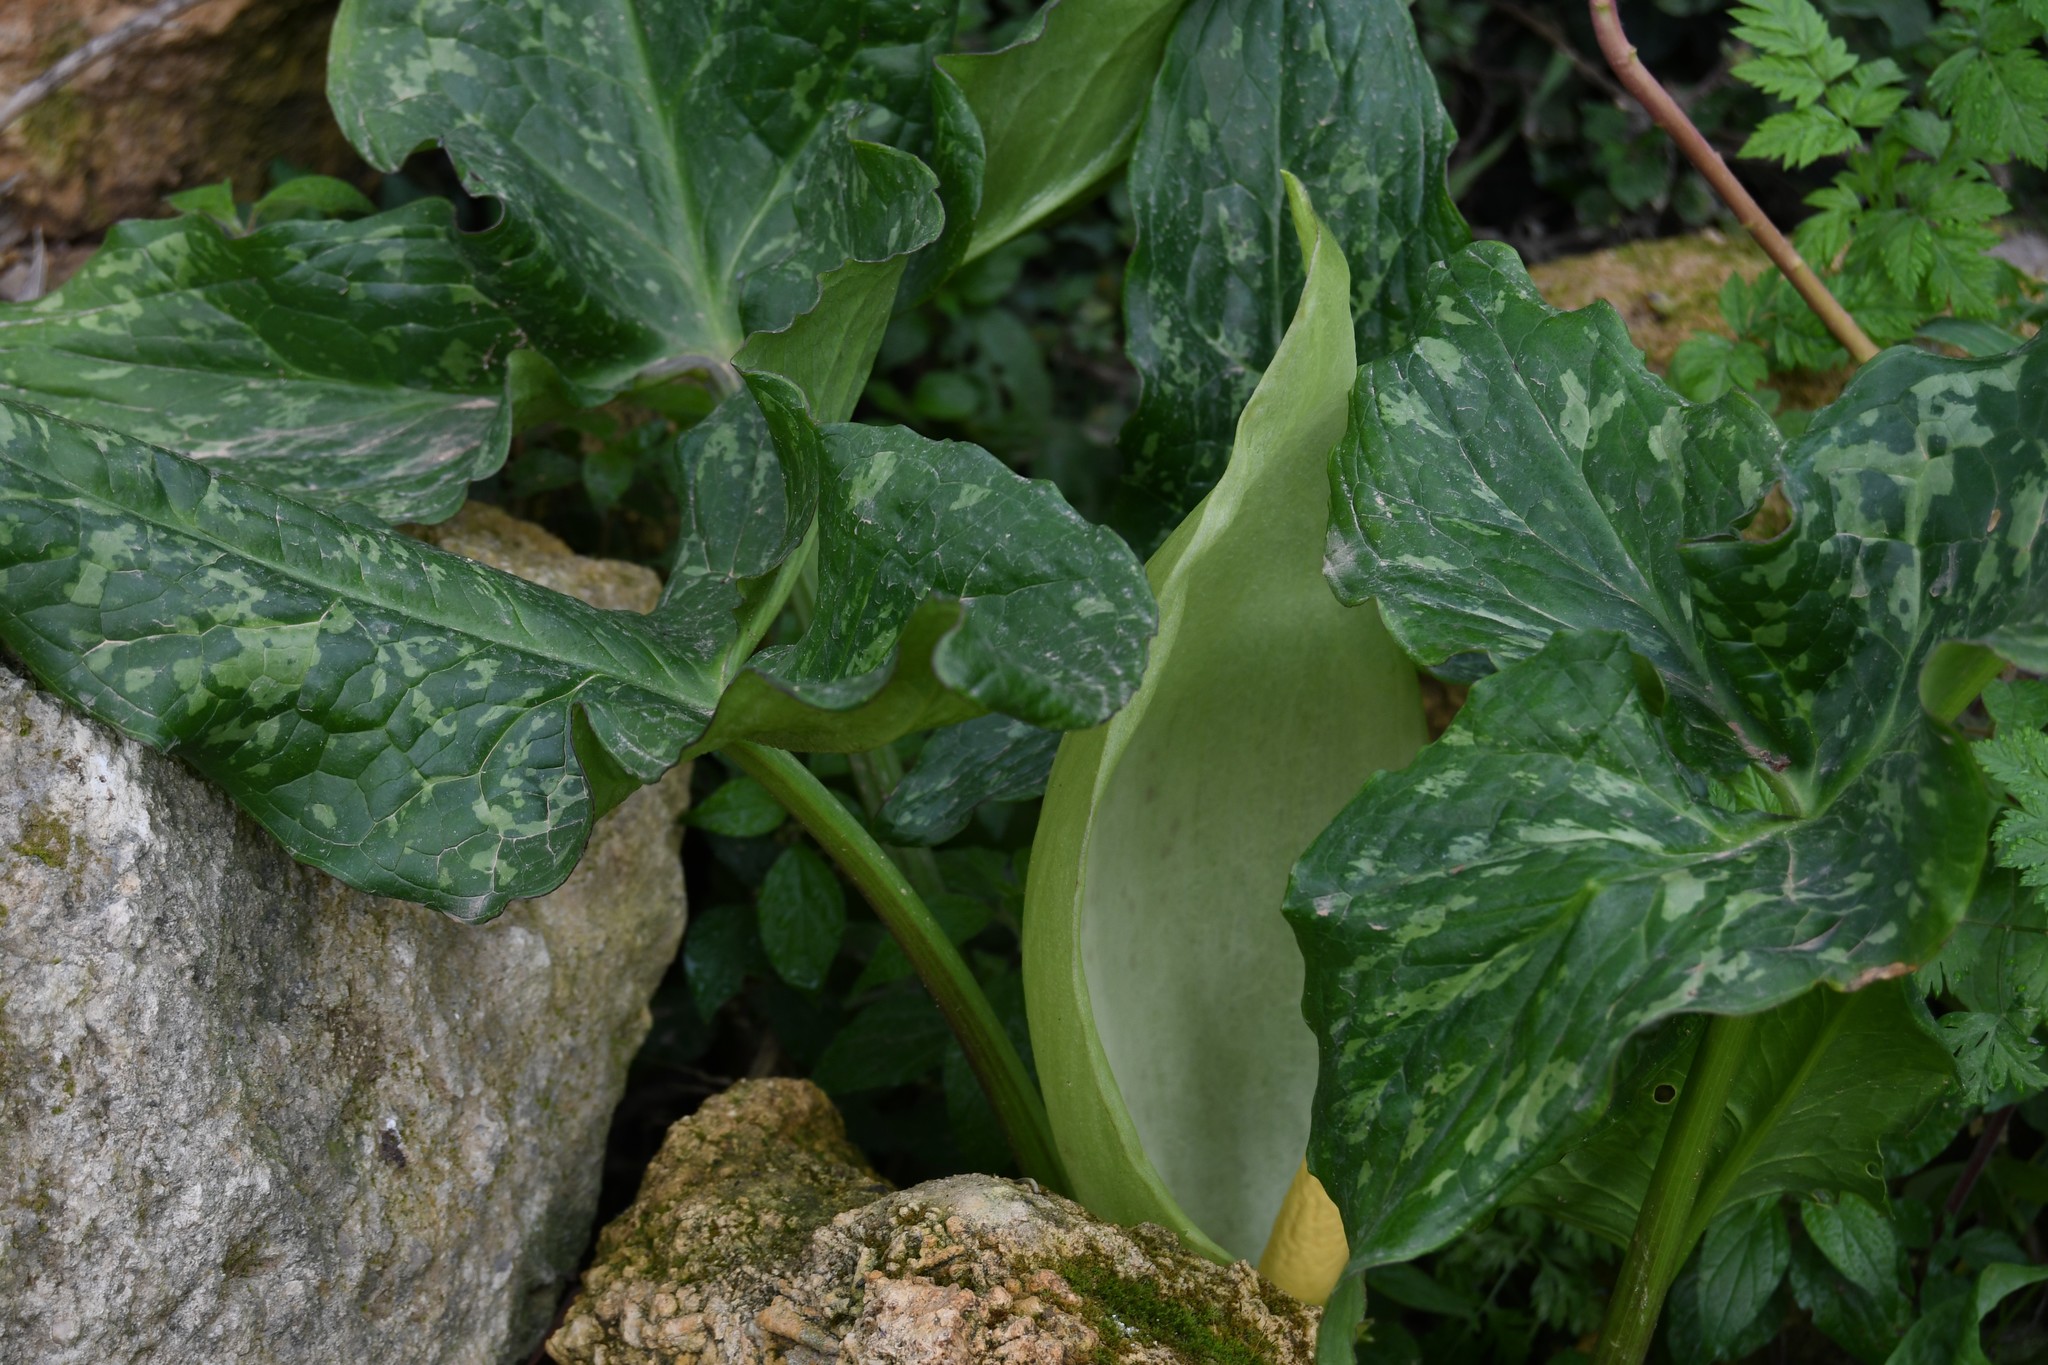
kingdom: Plantae
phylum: Tracheophyta
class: Liliopsida
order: Alismatales
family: Araceae
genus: Arum
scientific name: Arum italicum
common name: Italian lords-and-ladies
